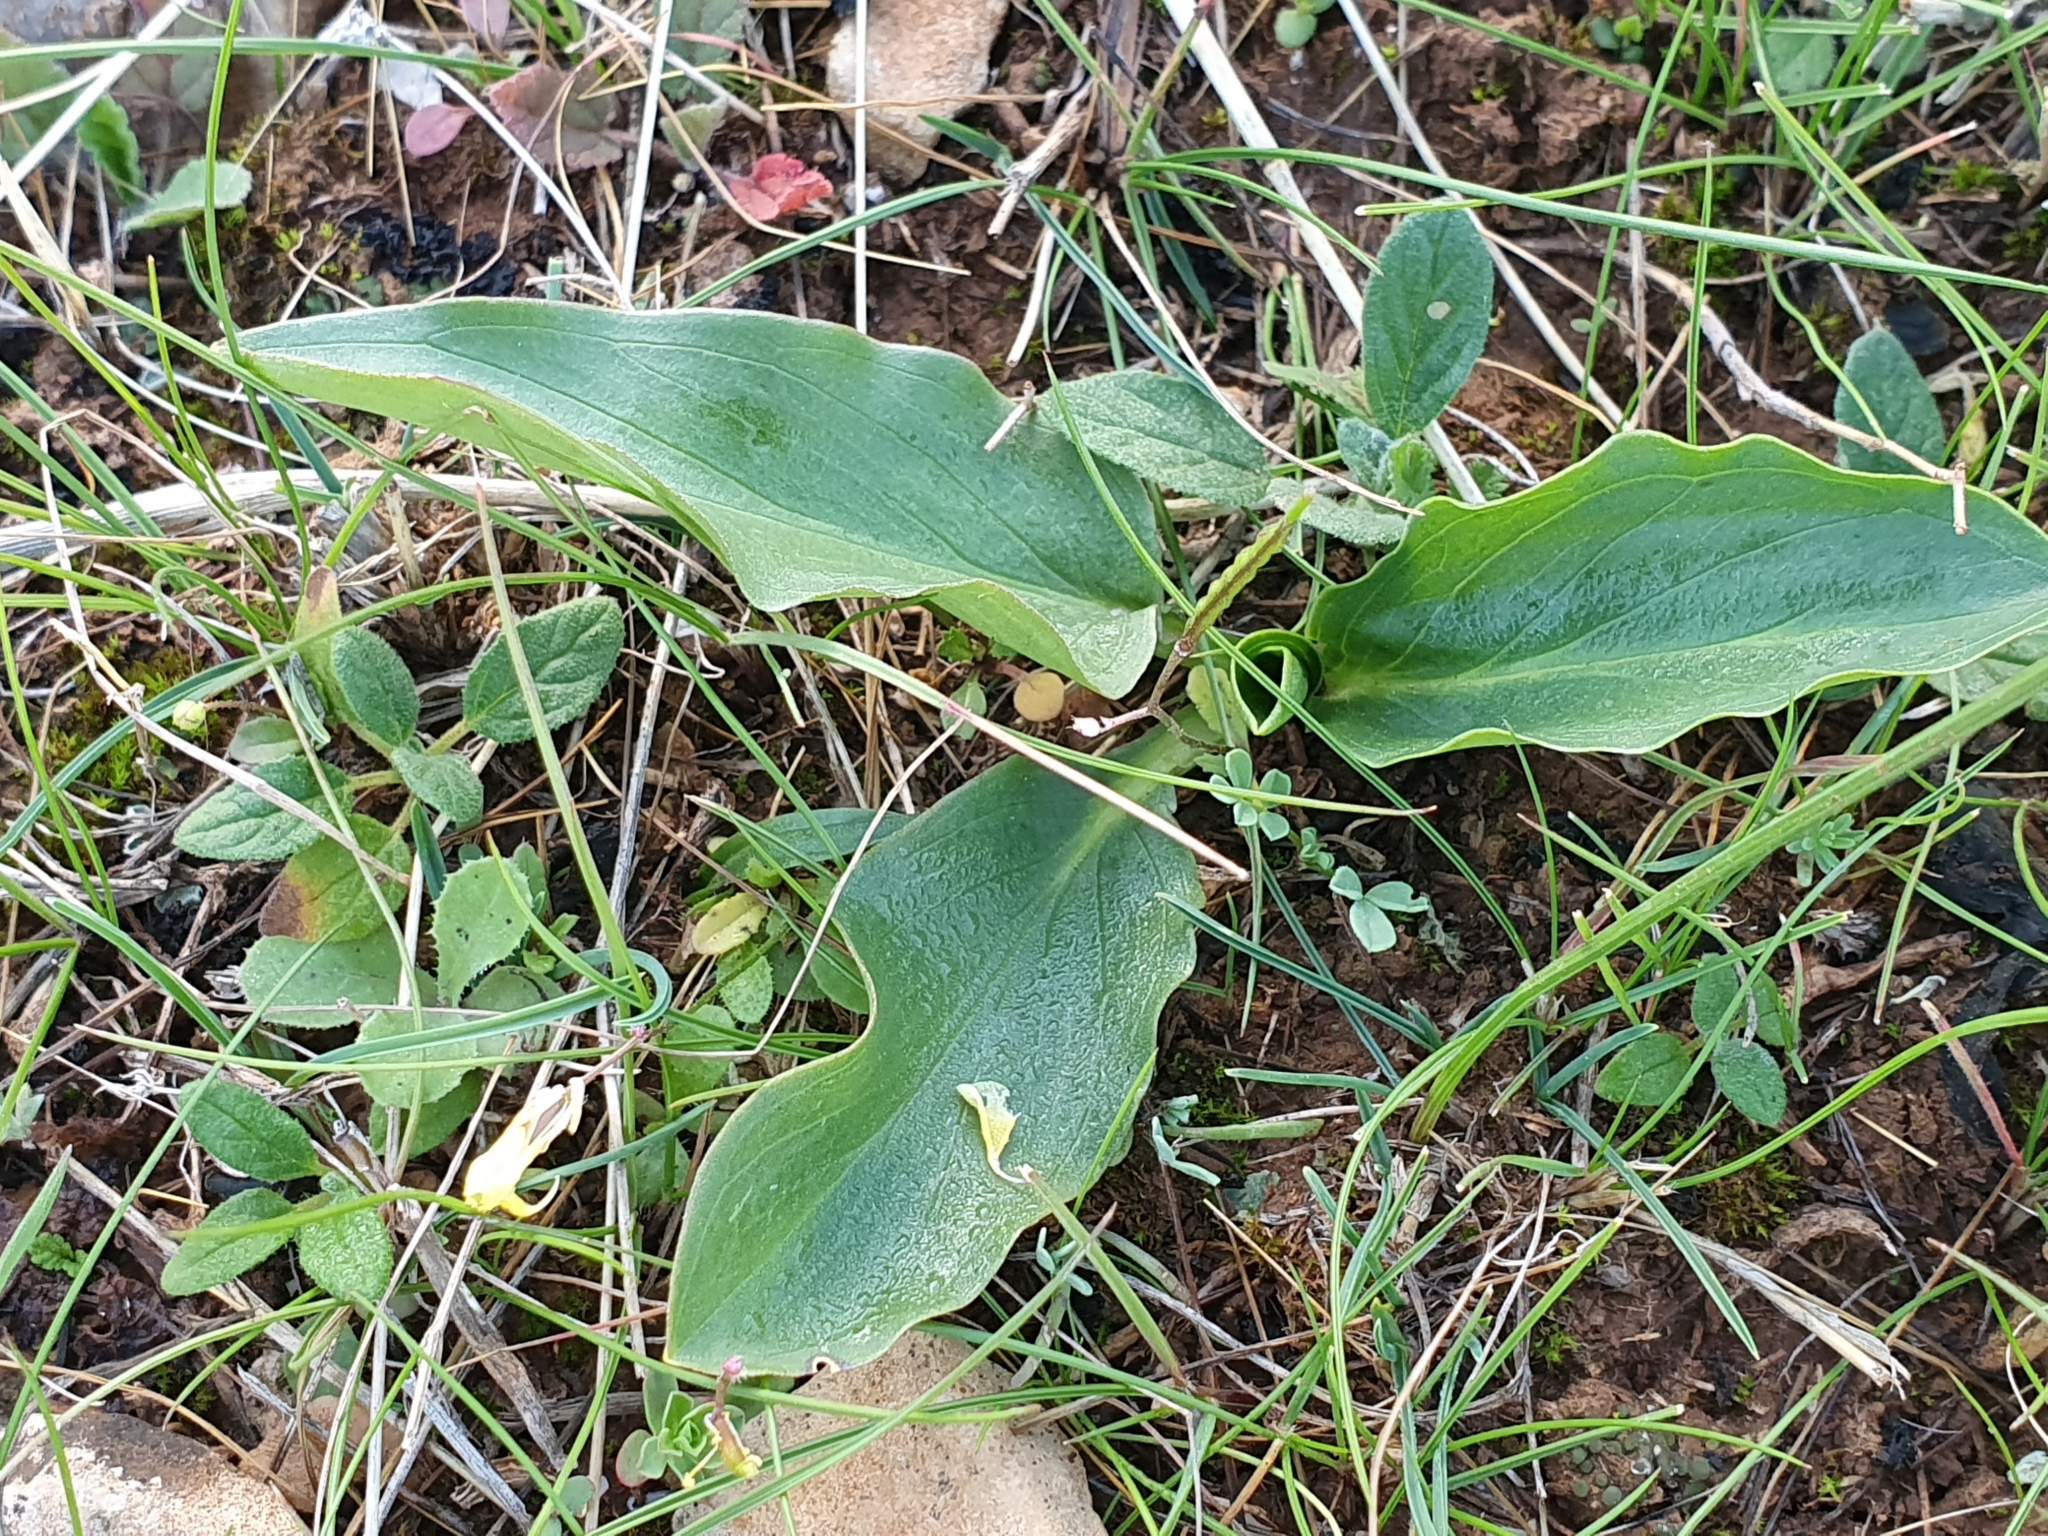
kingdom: Plantae
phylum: Tracheophyta
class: Liliopsida
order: Alismatales
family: Araceae
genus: Biarum
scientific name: Biarum dispar
